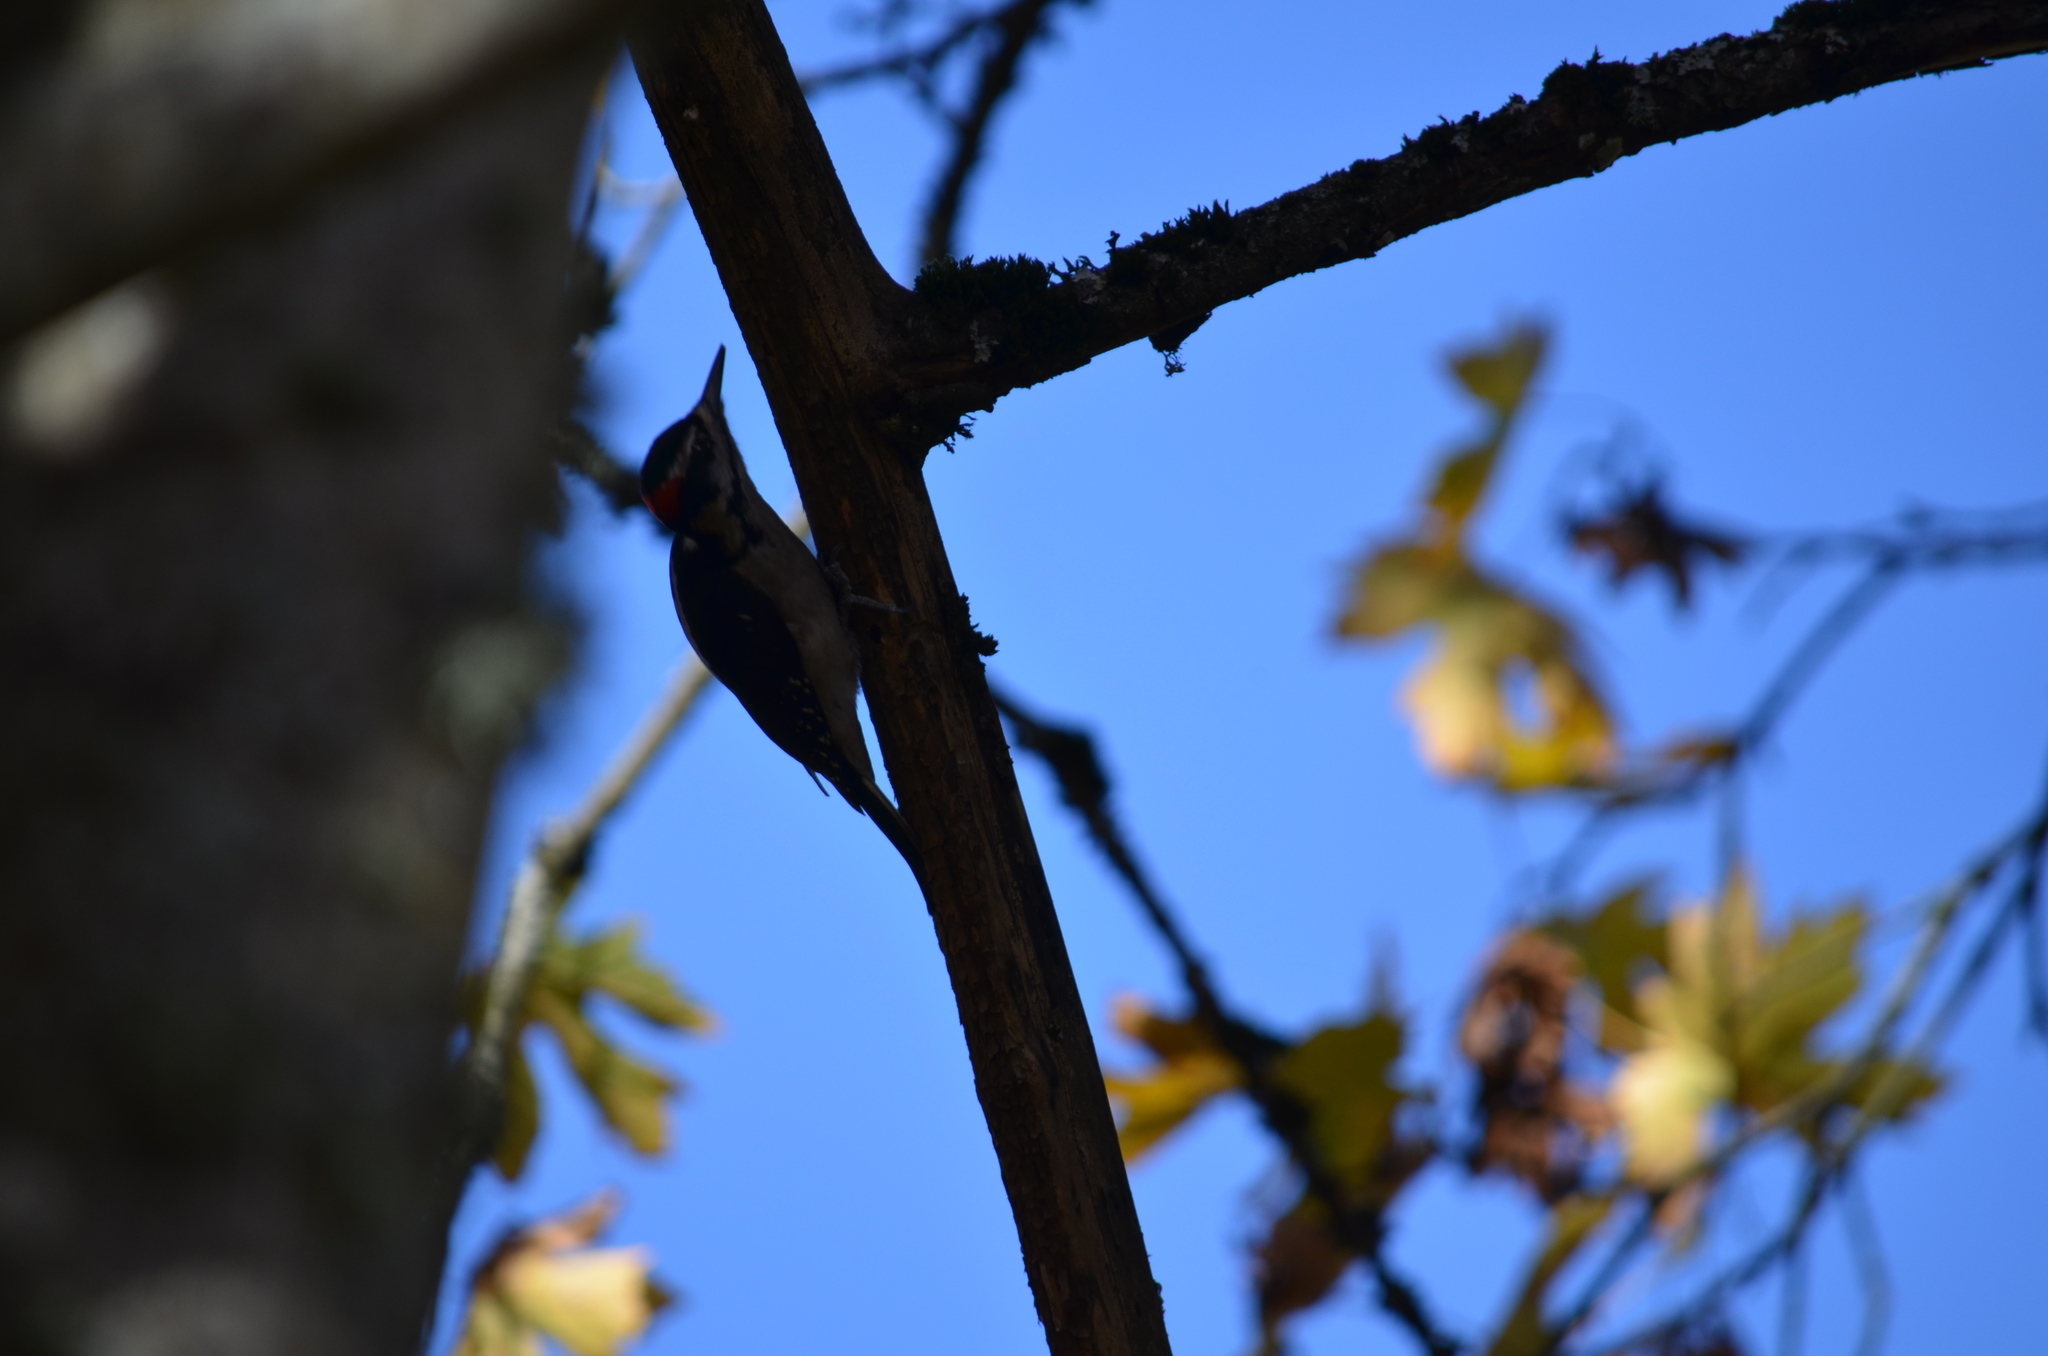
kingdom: Animalia
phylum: Chordata
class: Aves
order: Piciformes
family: Picidae
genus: Leuconotopicus
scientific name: Leuconotopicus villosus
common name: Hairy woodpecker
